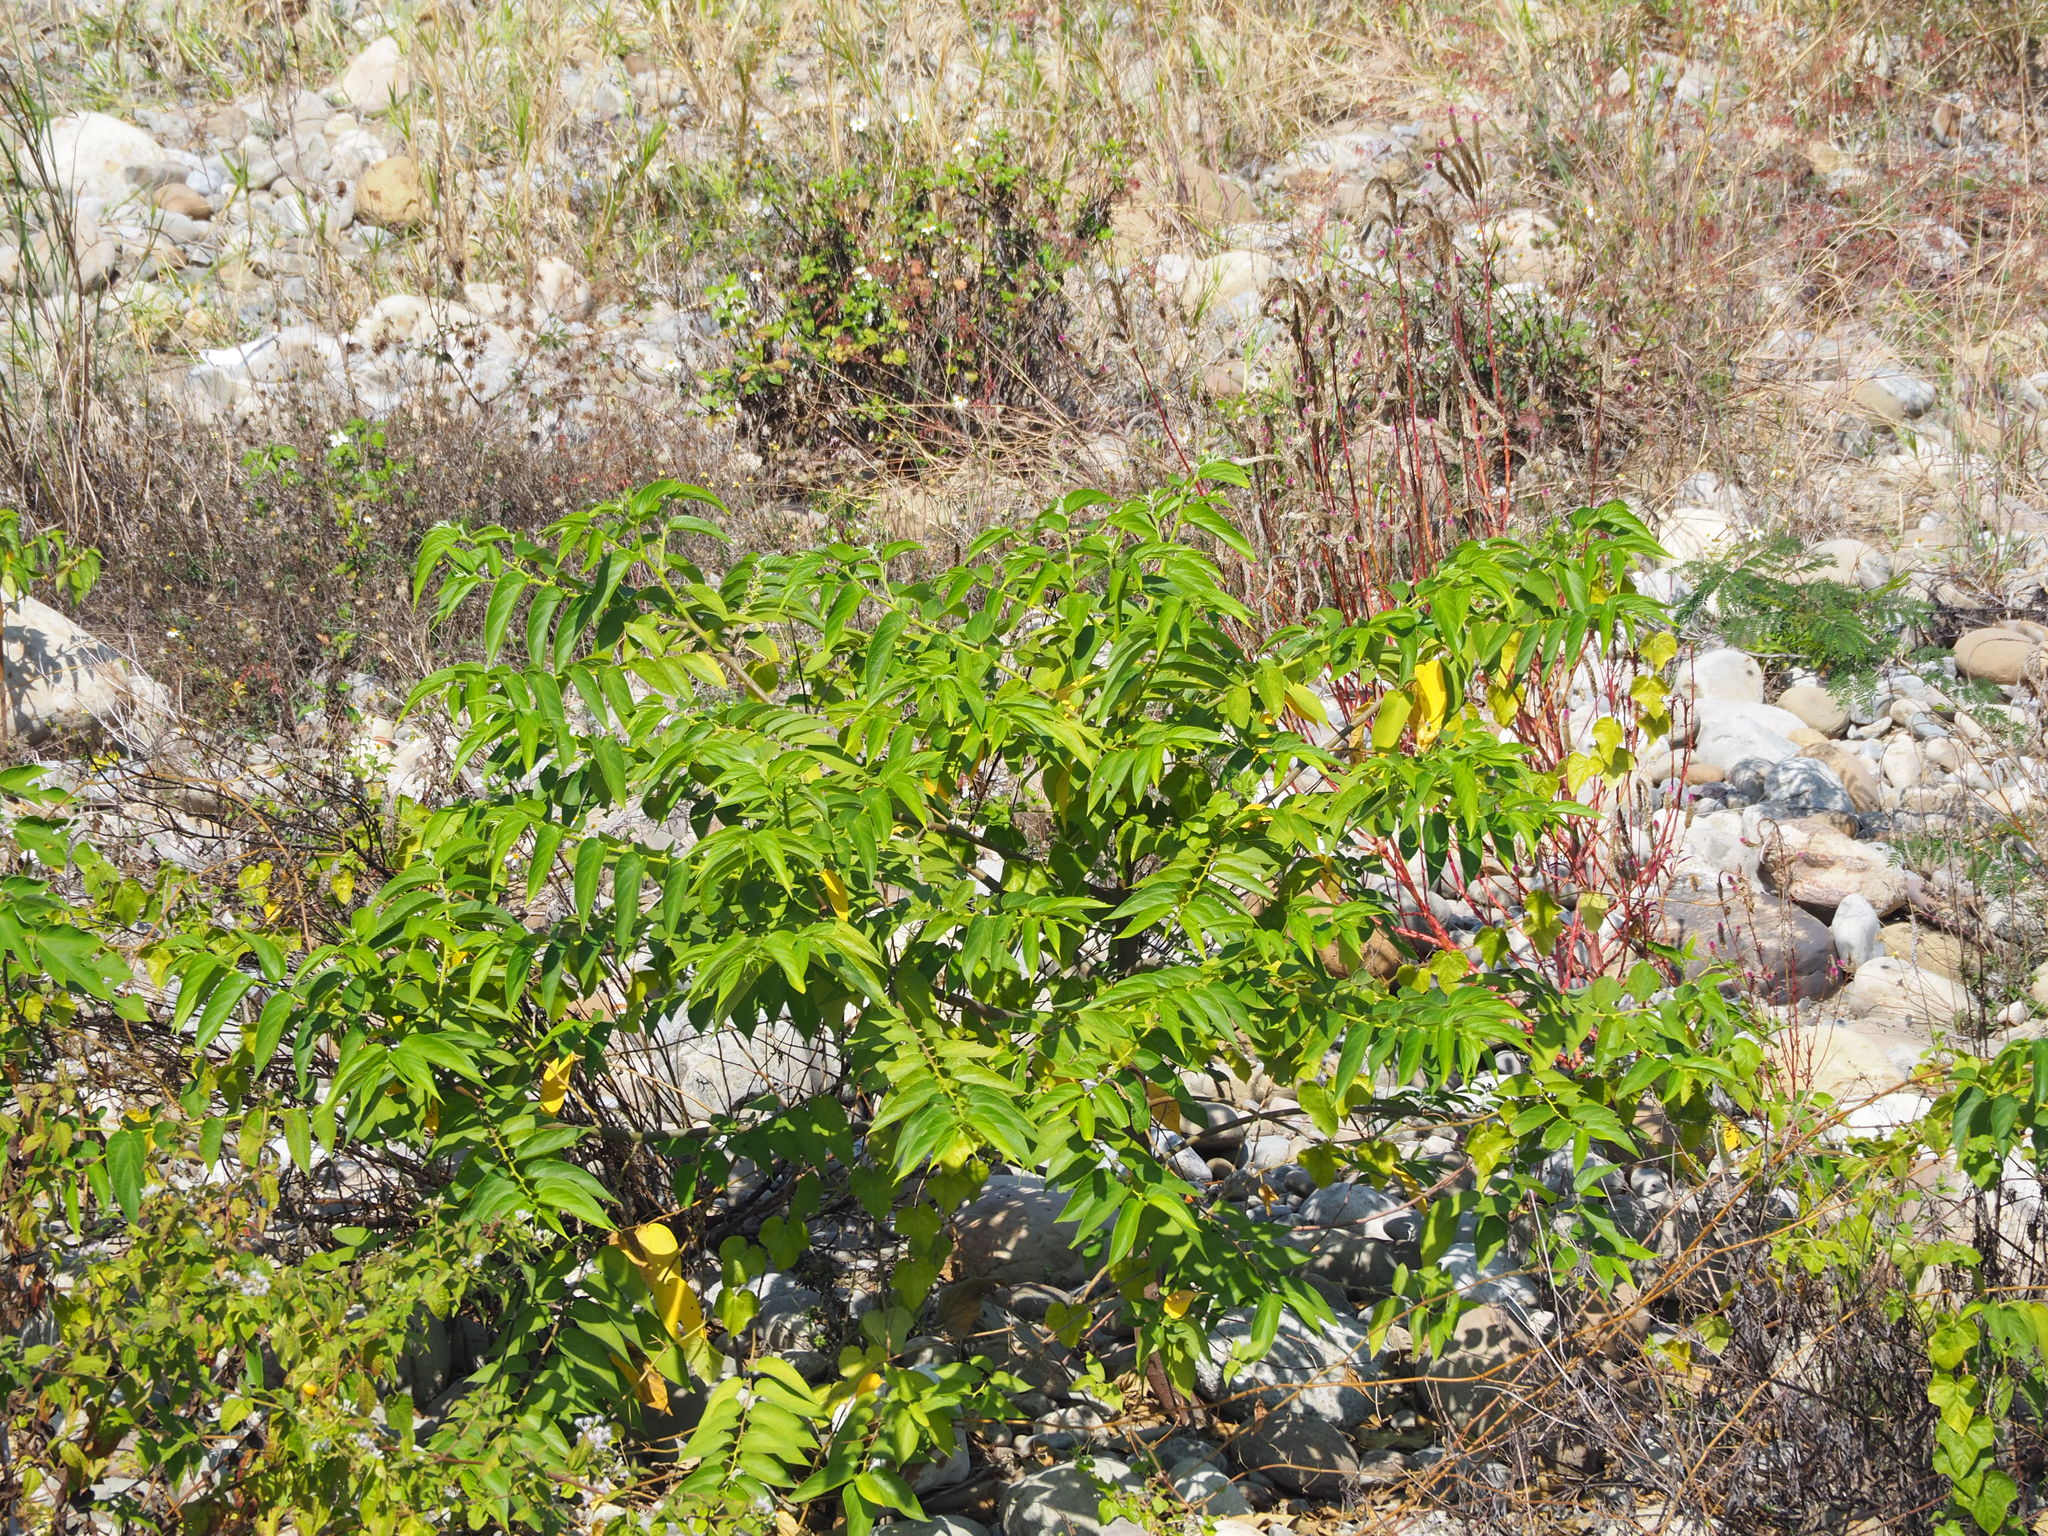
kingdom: Plantae
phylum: Tracheophyta
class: Magnoliopsida
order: Rosales
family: Cannabaceae
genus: Trema
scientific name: Trema orientale
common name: Indian charcoal tree
